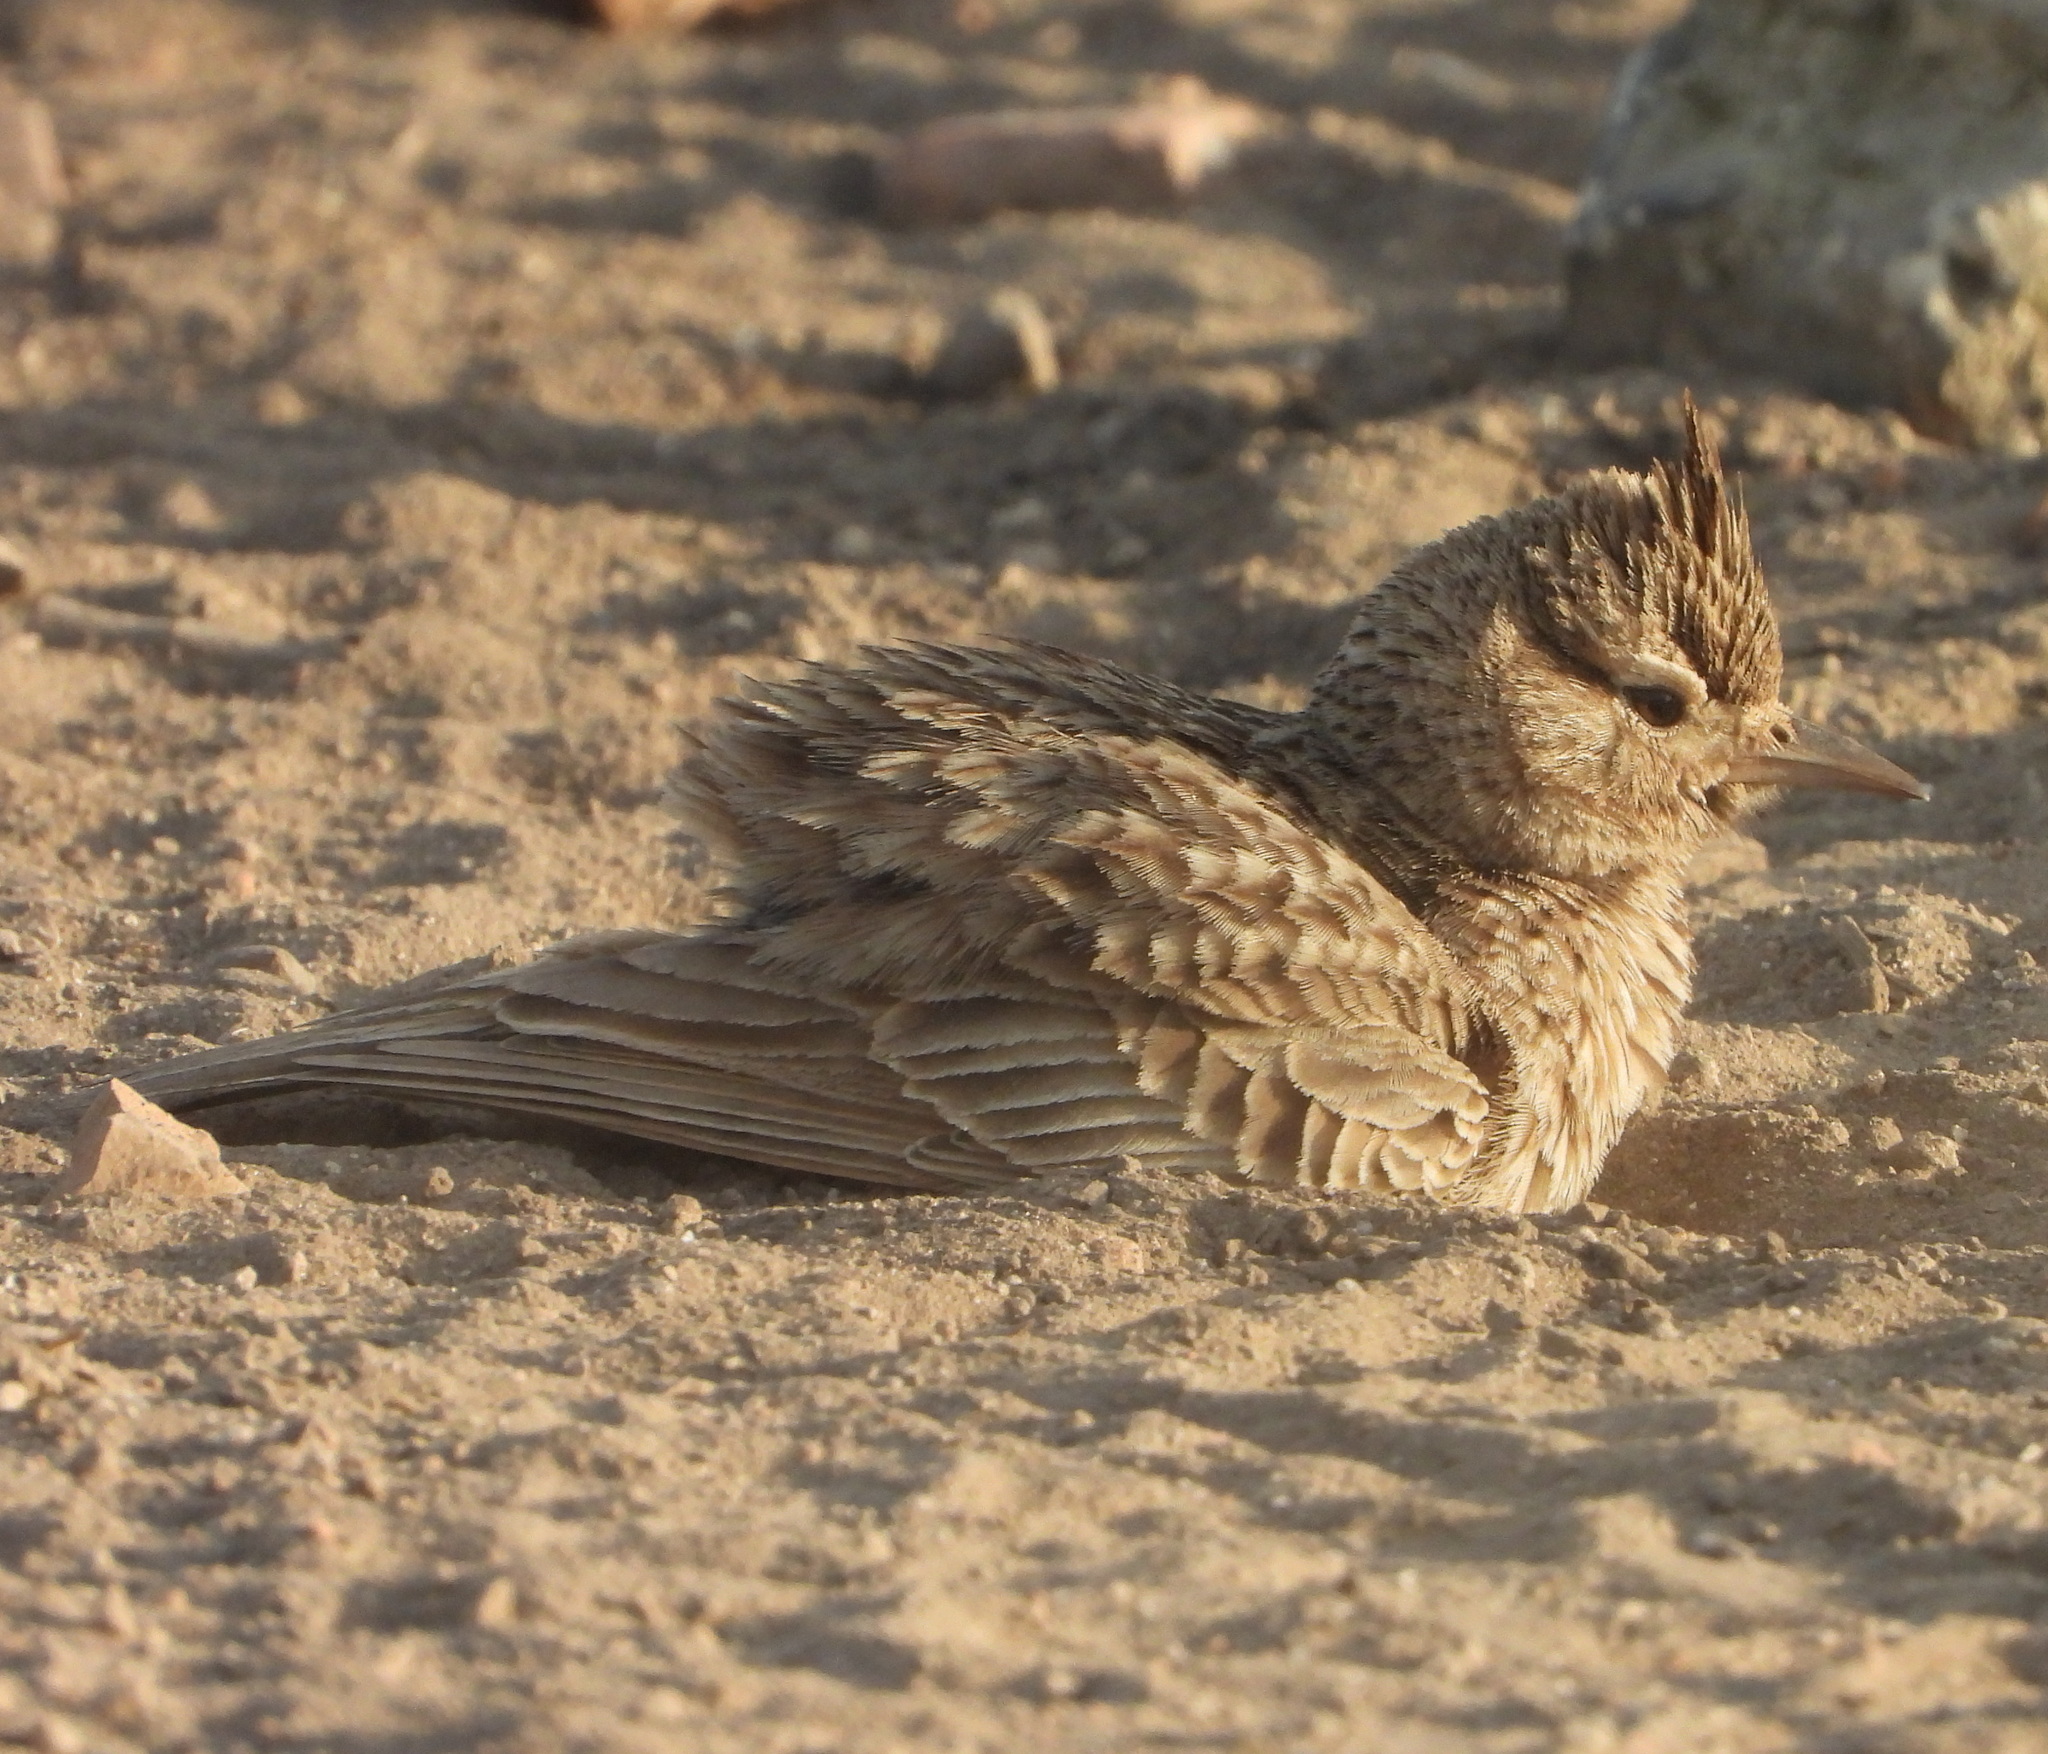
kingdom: Animalia
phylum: Chordata
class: Aves
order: Passeriformes
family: Alaudidae
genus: Galerida
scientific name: Galerida cristata
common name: Crested lark
